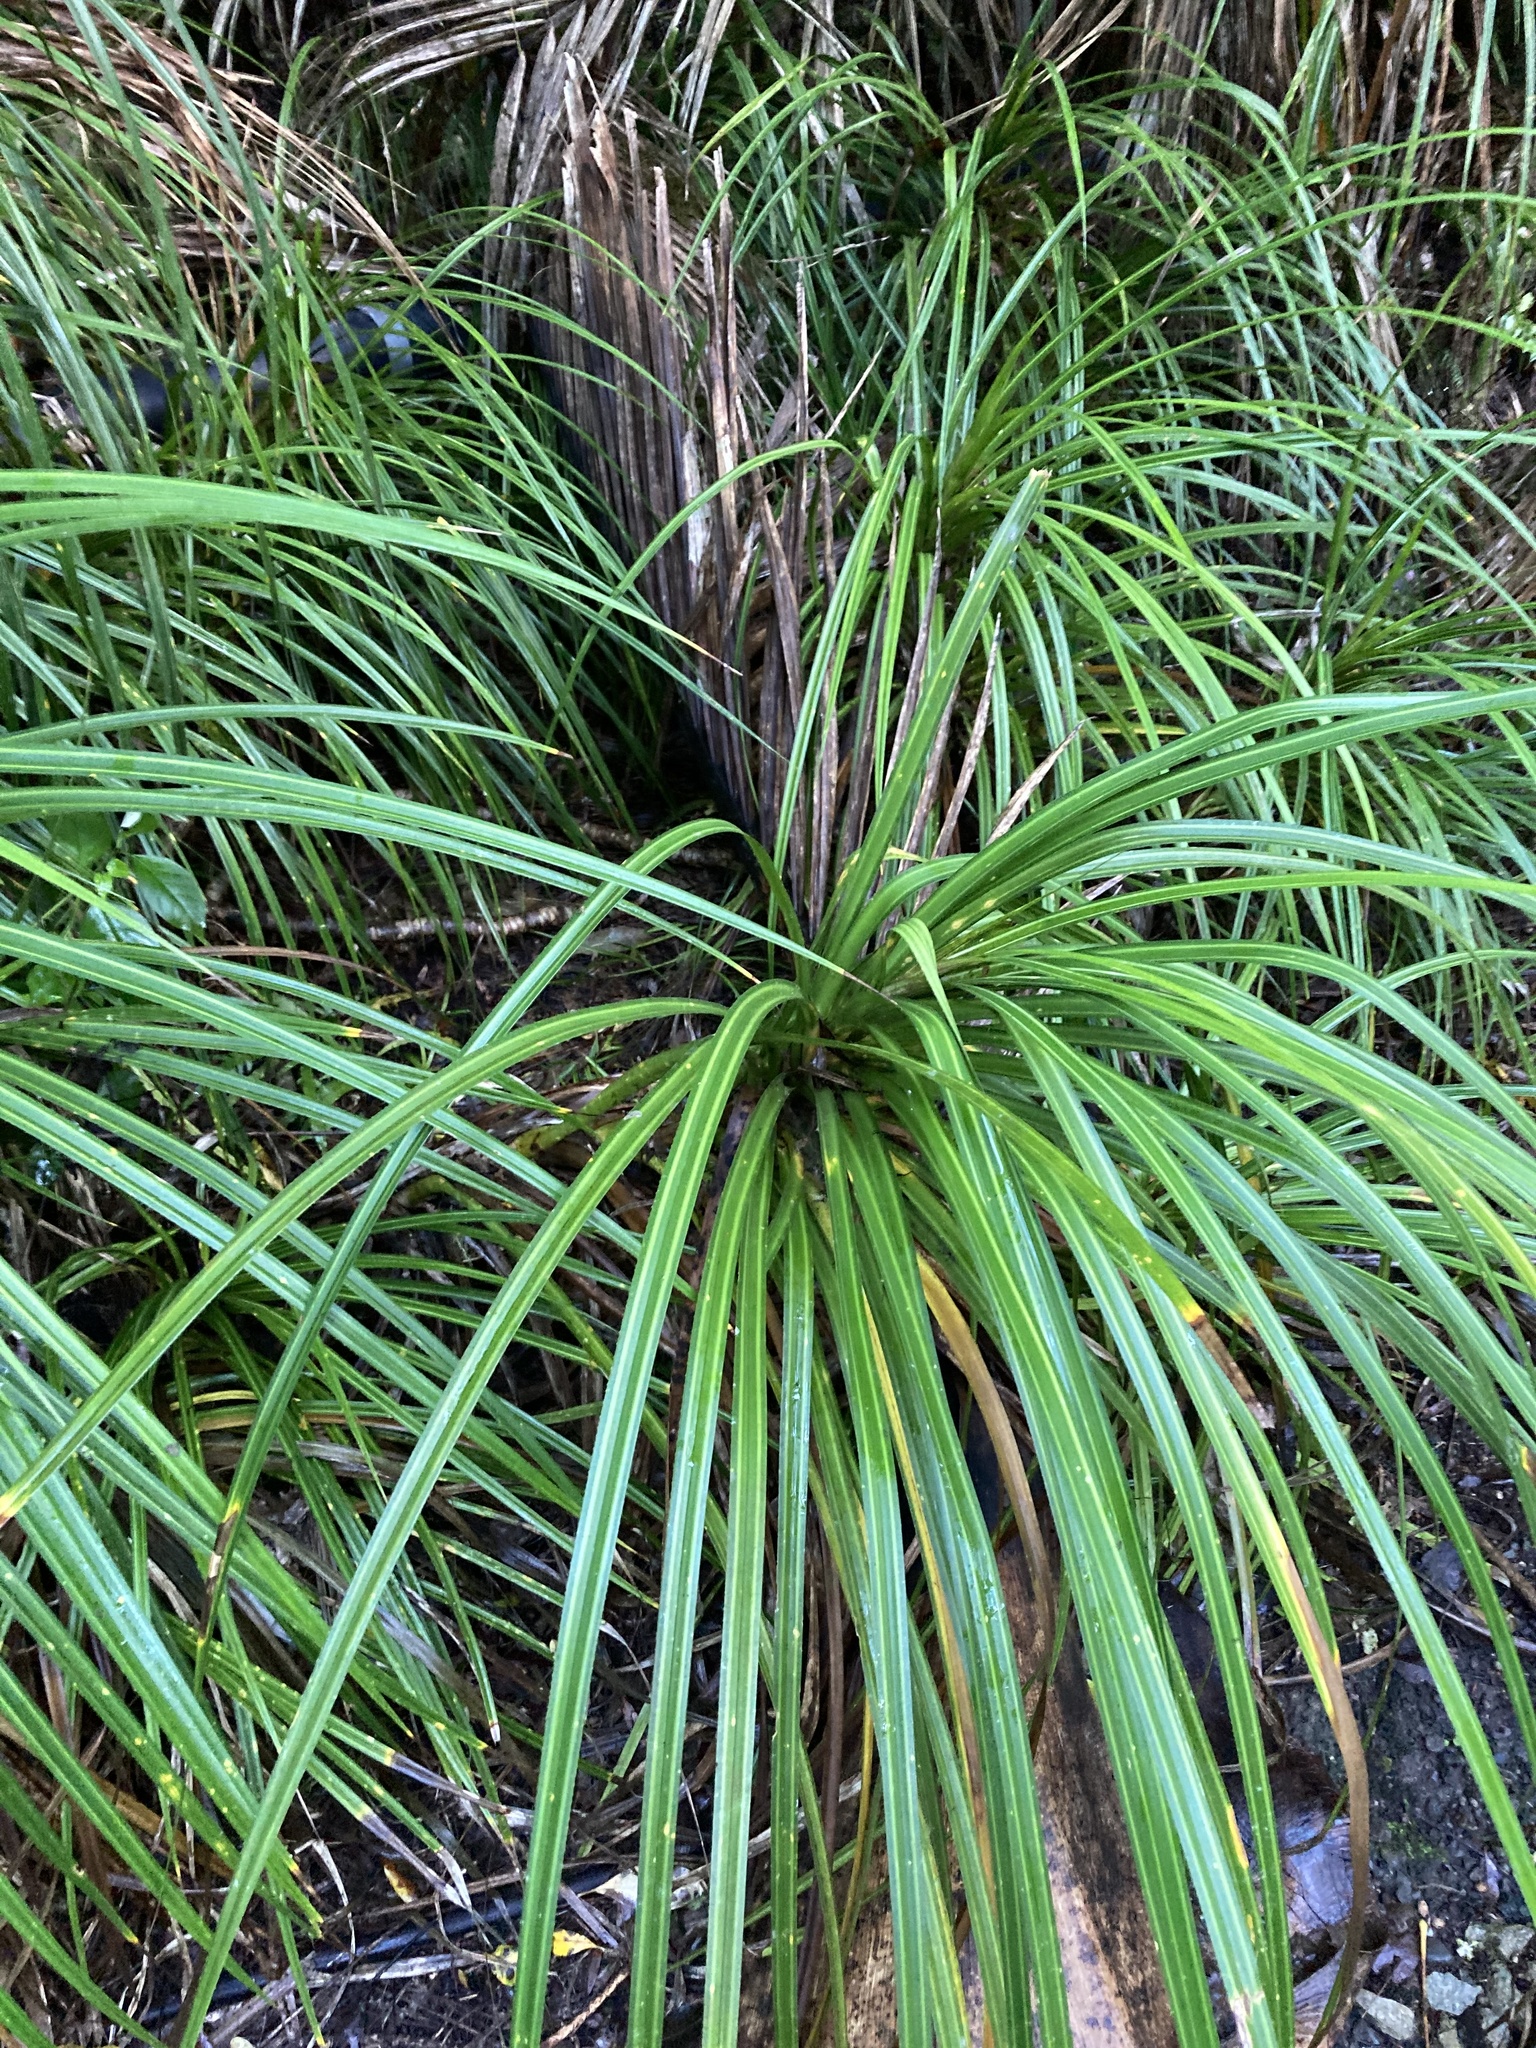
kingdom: Plantae
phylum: Tracheophyta
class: Liliopsida
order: Pandanales
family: Pandanaceae
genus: Freycinetia
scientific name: Freycinetia banksii
